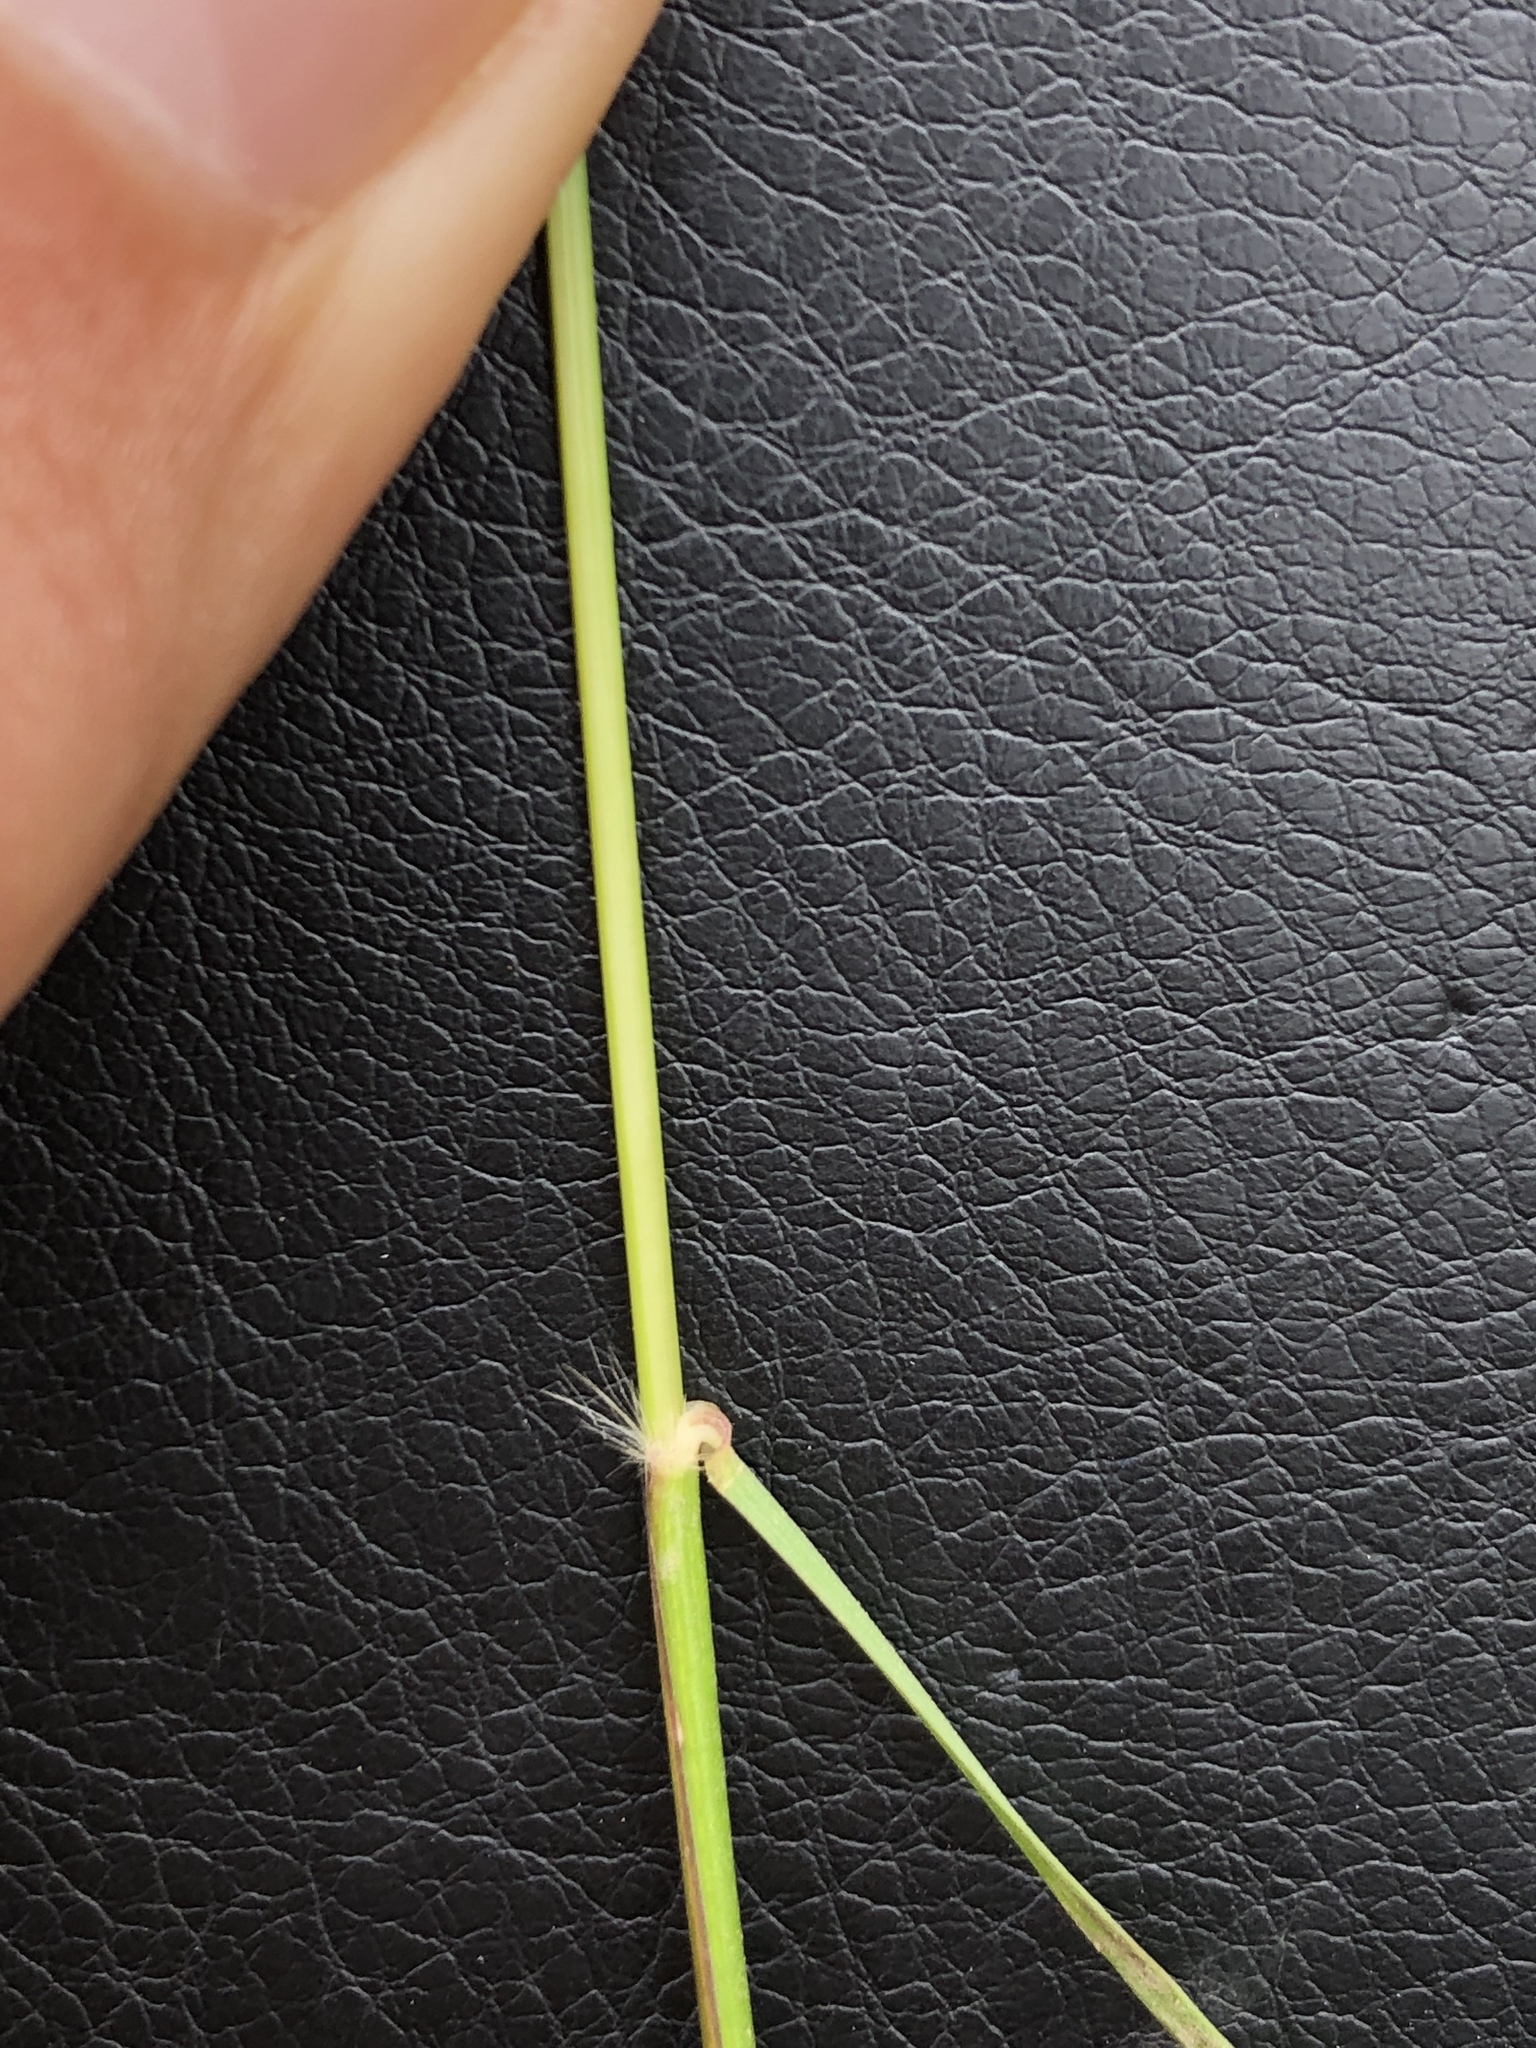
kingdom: Plantae
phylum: Tracheophyta
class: Liliopsida
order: Poales
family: Poaceae
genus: Danthonia
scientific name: Danthonia californica
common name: California oat grass
